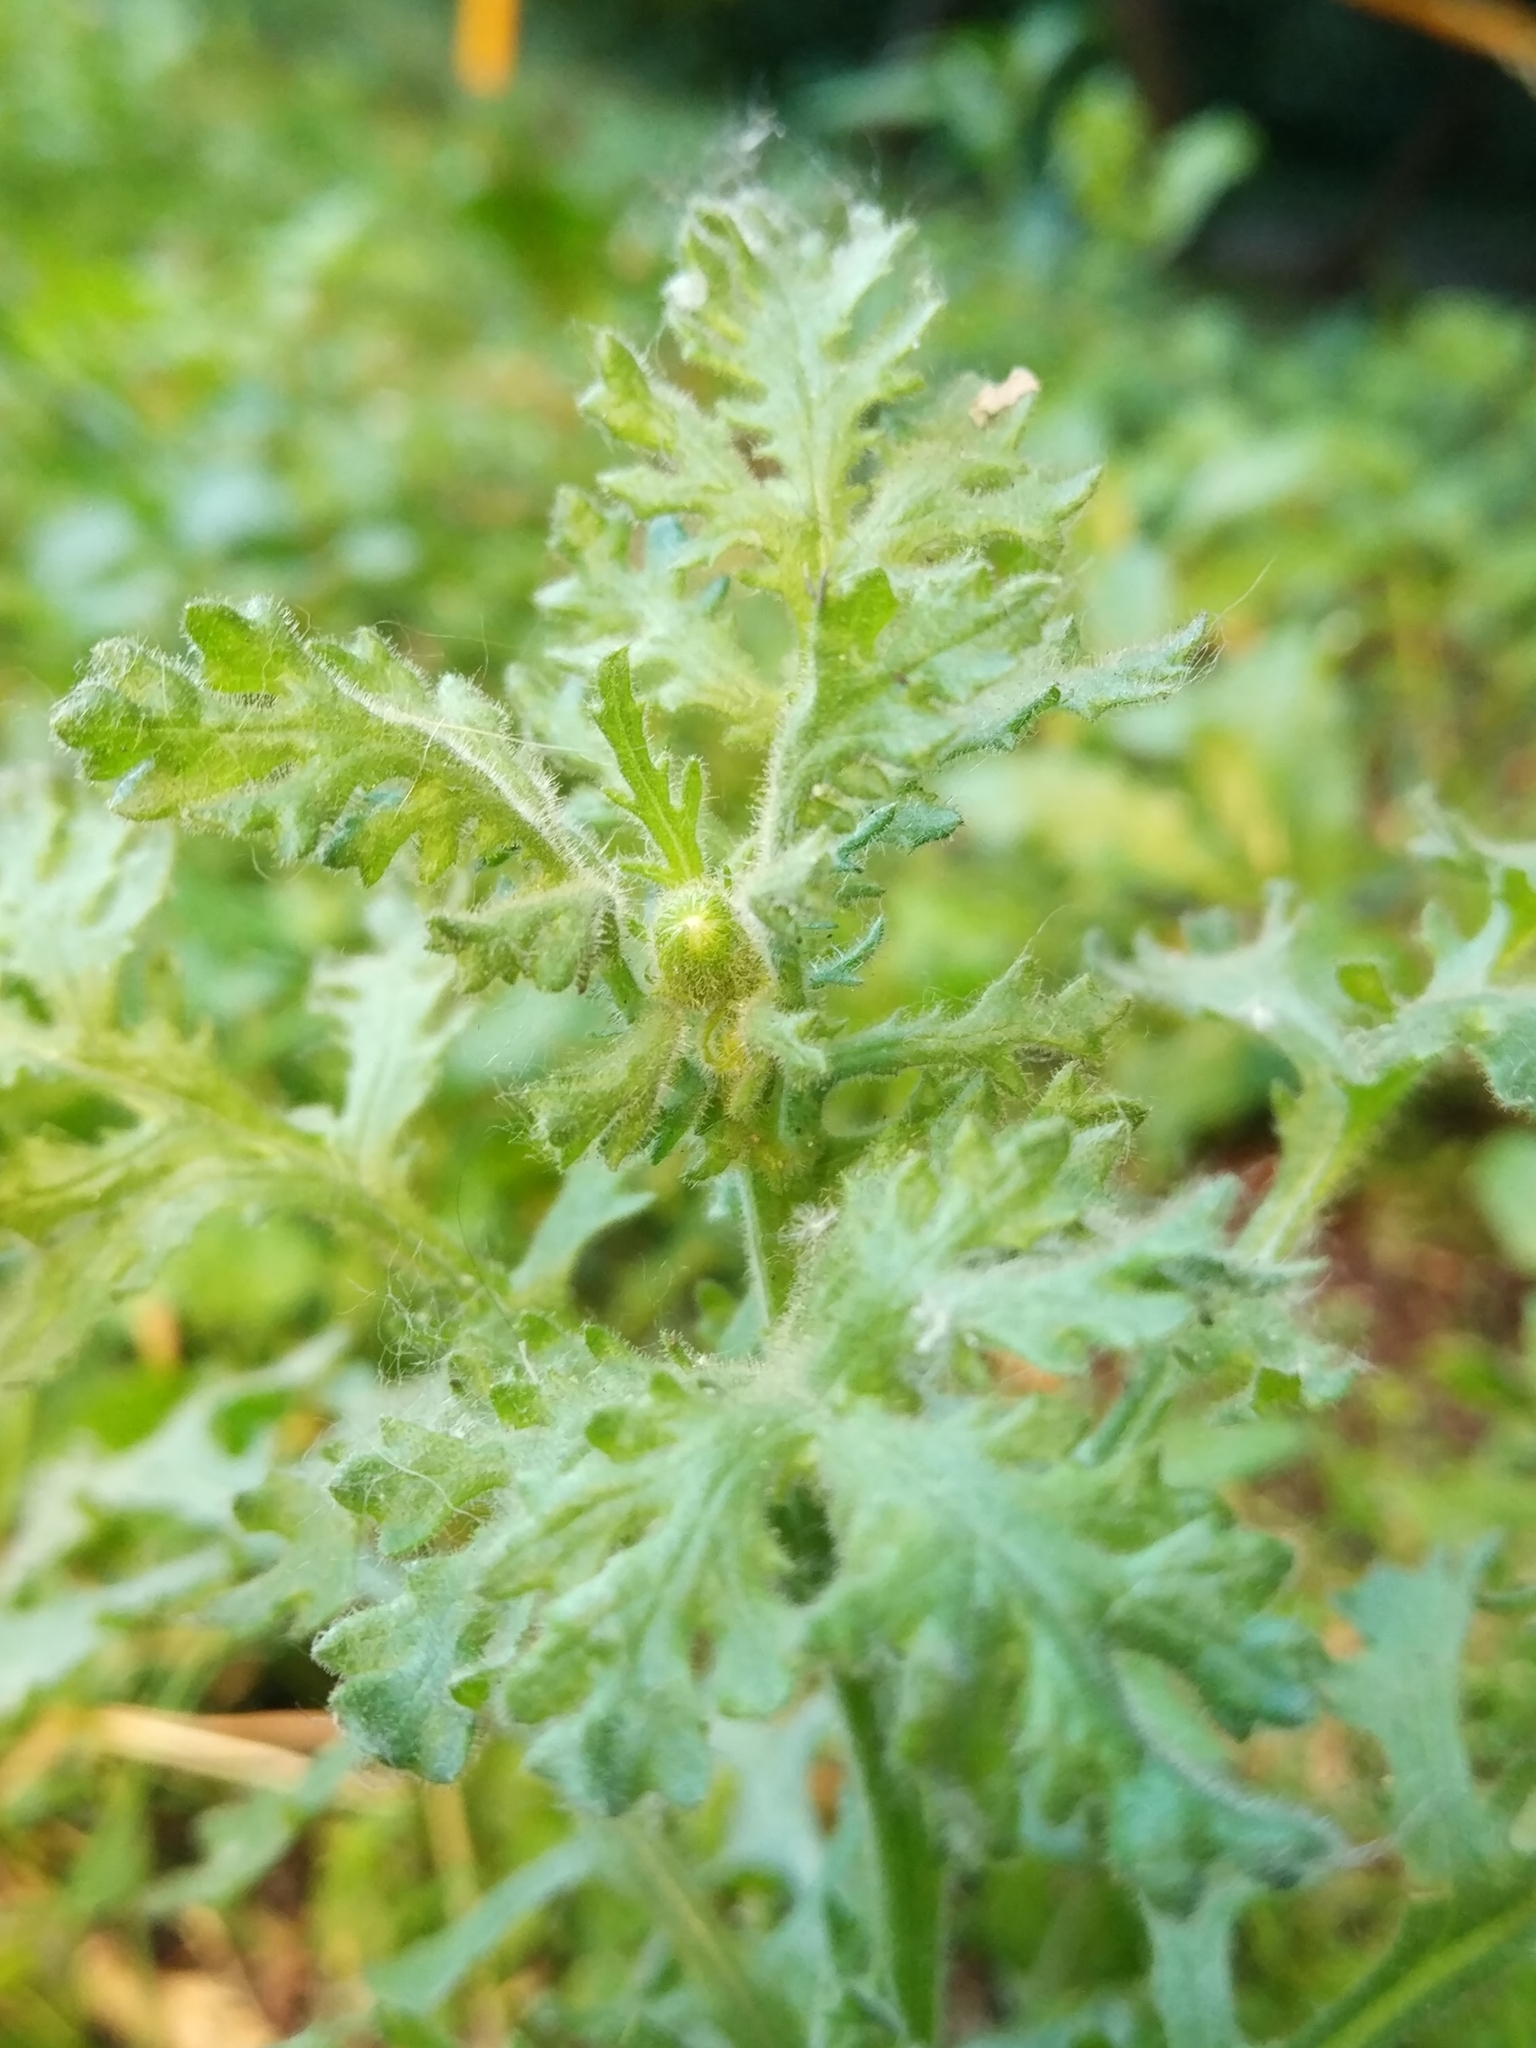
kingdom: Plantae
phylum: Tracheophyta
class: Magnoliopsida
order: Asterales
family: Asteraceae
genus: Senecio
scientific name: Senecio viscosus
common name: Sticky groundsel
